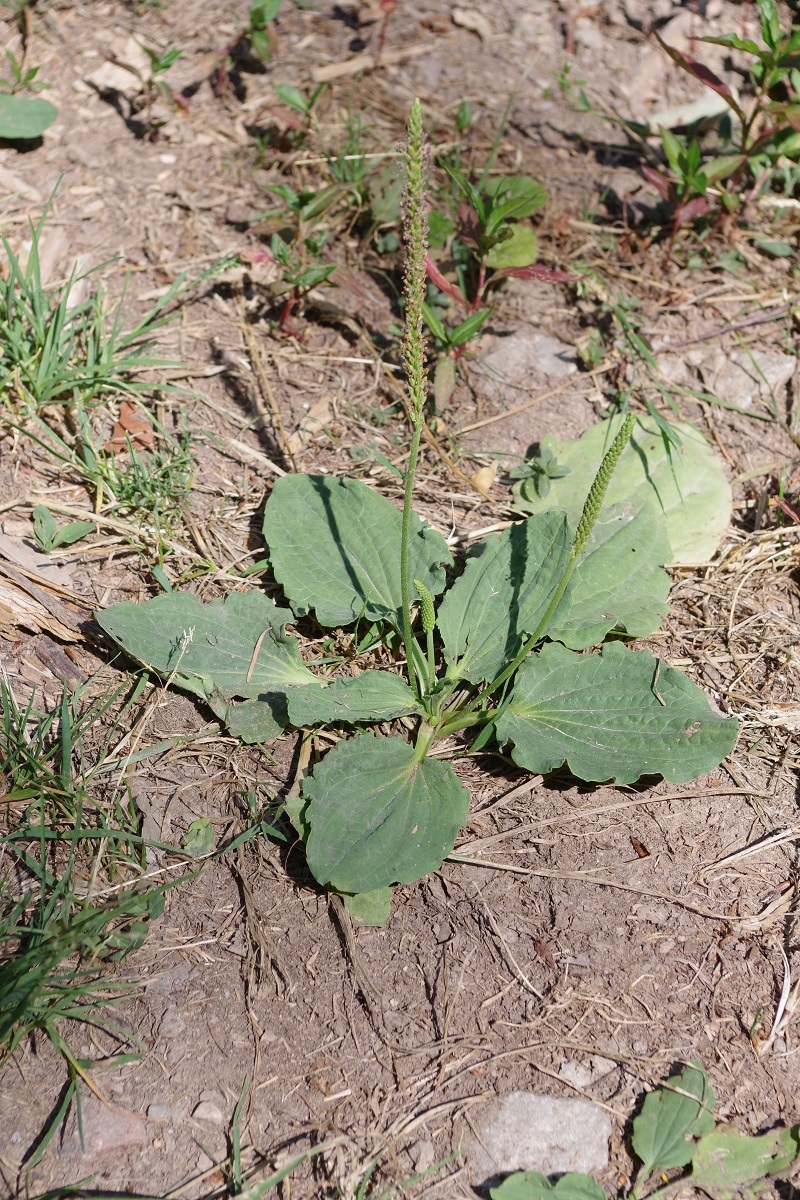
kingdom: Plantae
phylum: Tracheophyta
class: Magnoliopsida
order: Lamiales
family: Plantaginaceae
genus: Plantago
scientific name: Plantago major
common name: Common plantain
